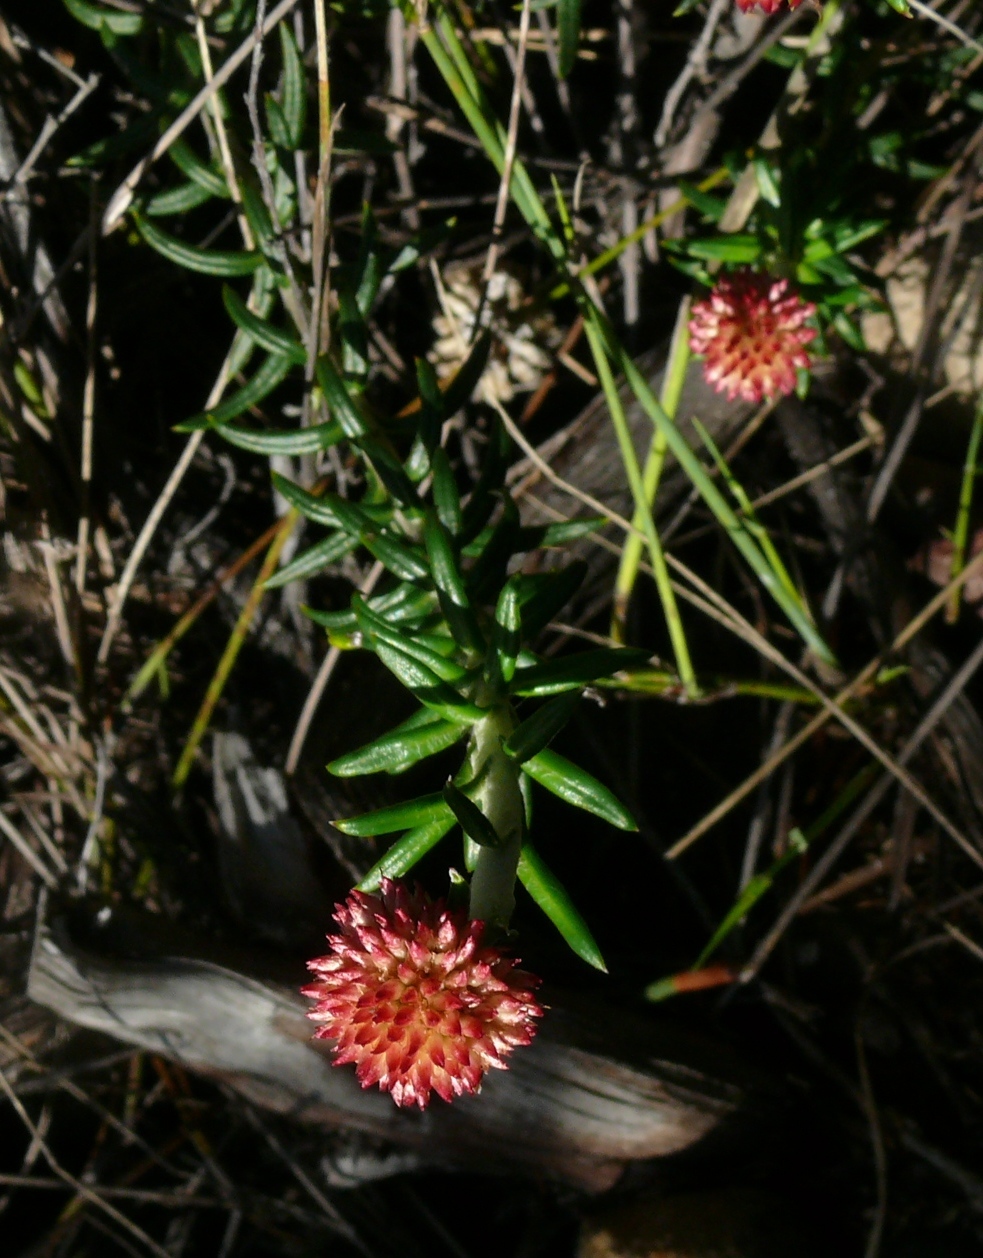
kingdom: Plantae
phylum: Tracheophyta
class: Magnoliopsida
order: Asterales
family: Asteraceae
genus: Anaxeton
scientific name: Anaxeton arborescens
